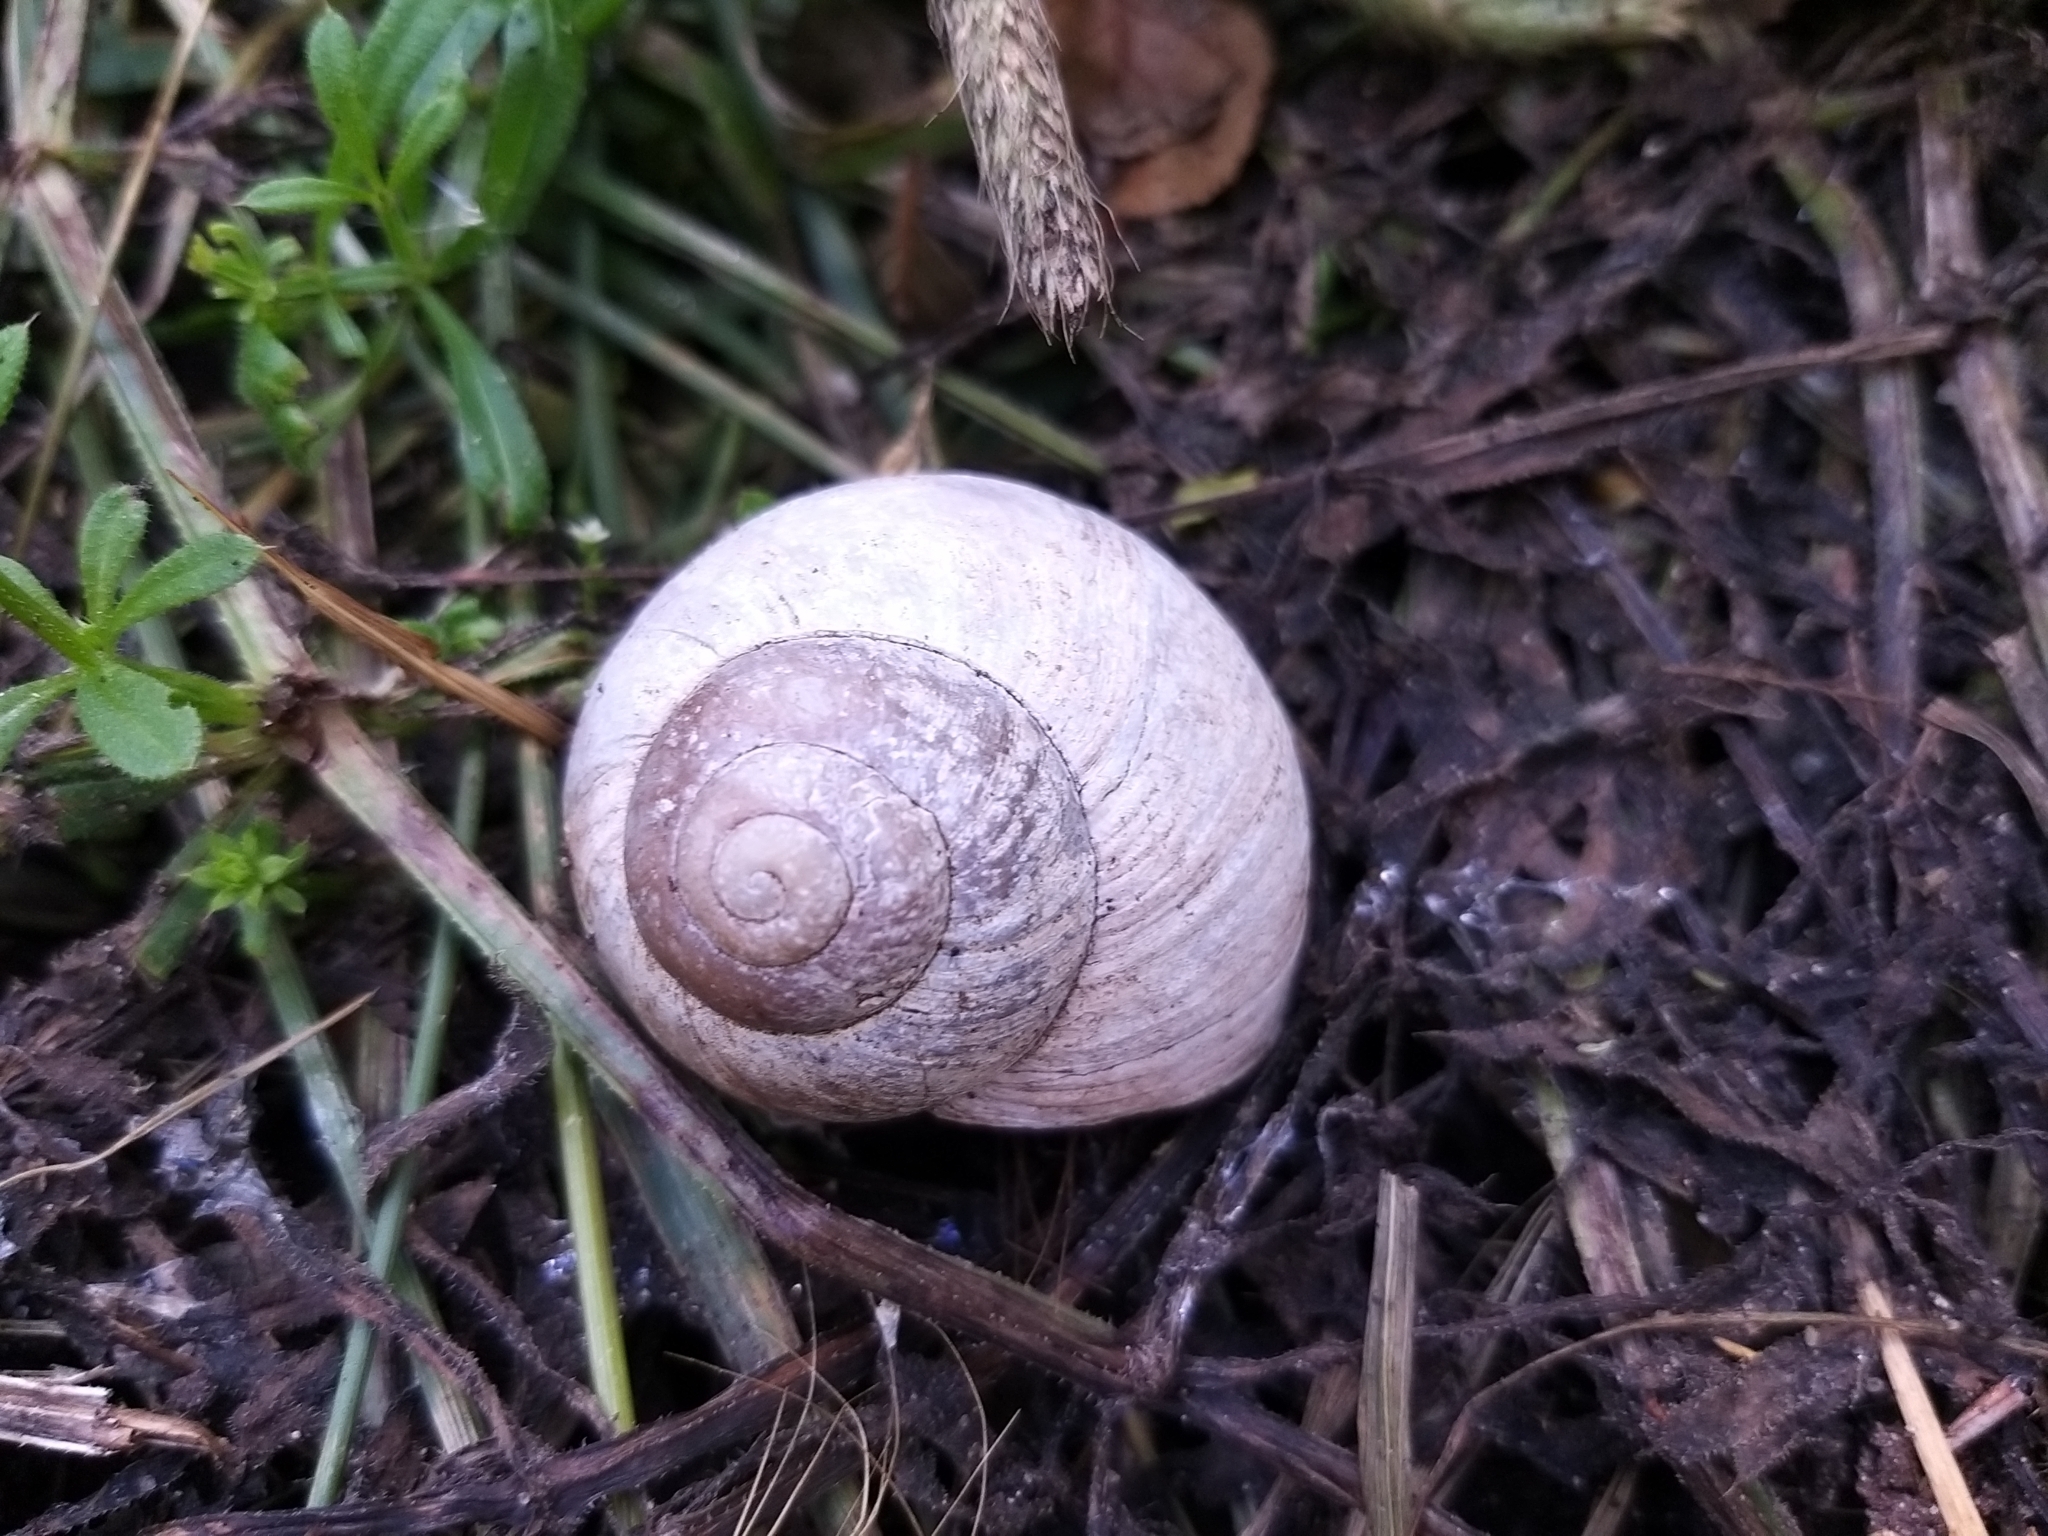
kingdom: Animalia
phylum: Mollusca
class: Gastropoda
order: Stylommatophora
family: Helicidae
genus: Helix
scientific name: Helix pomatia
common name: Roman snail
